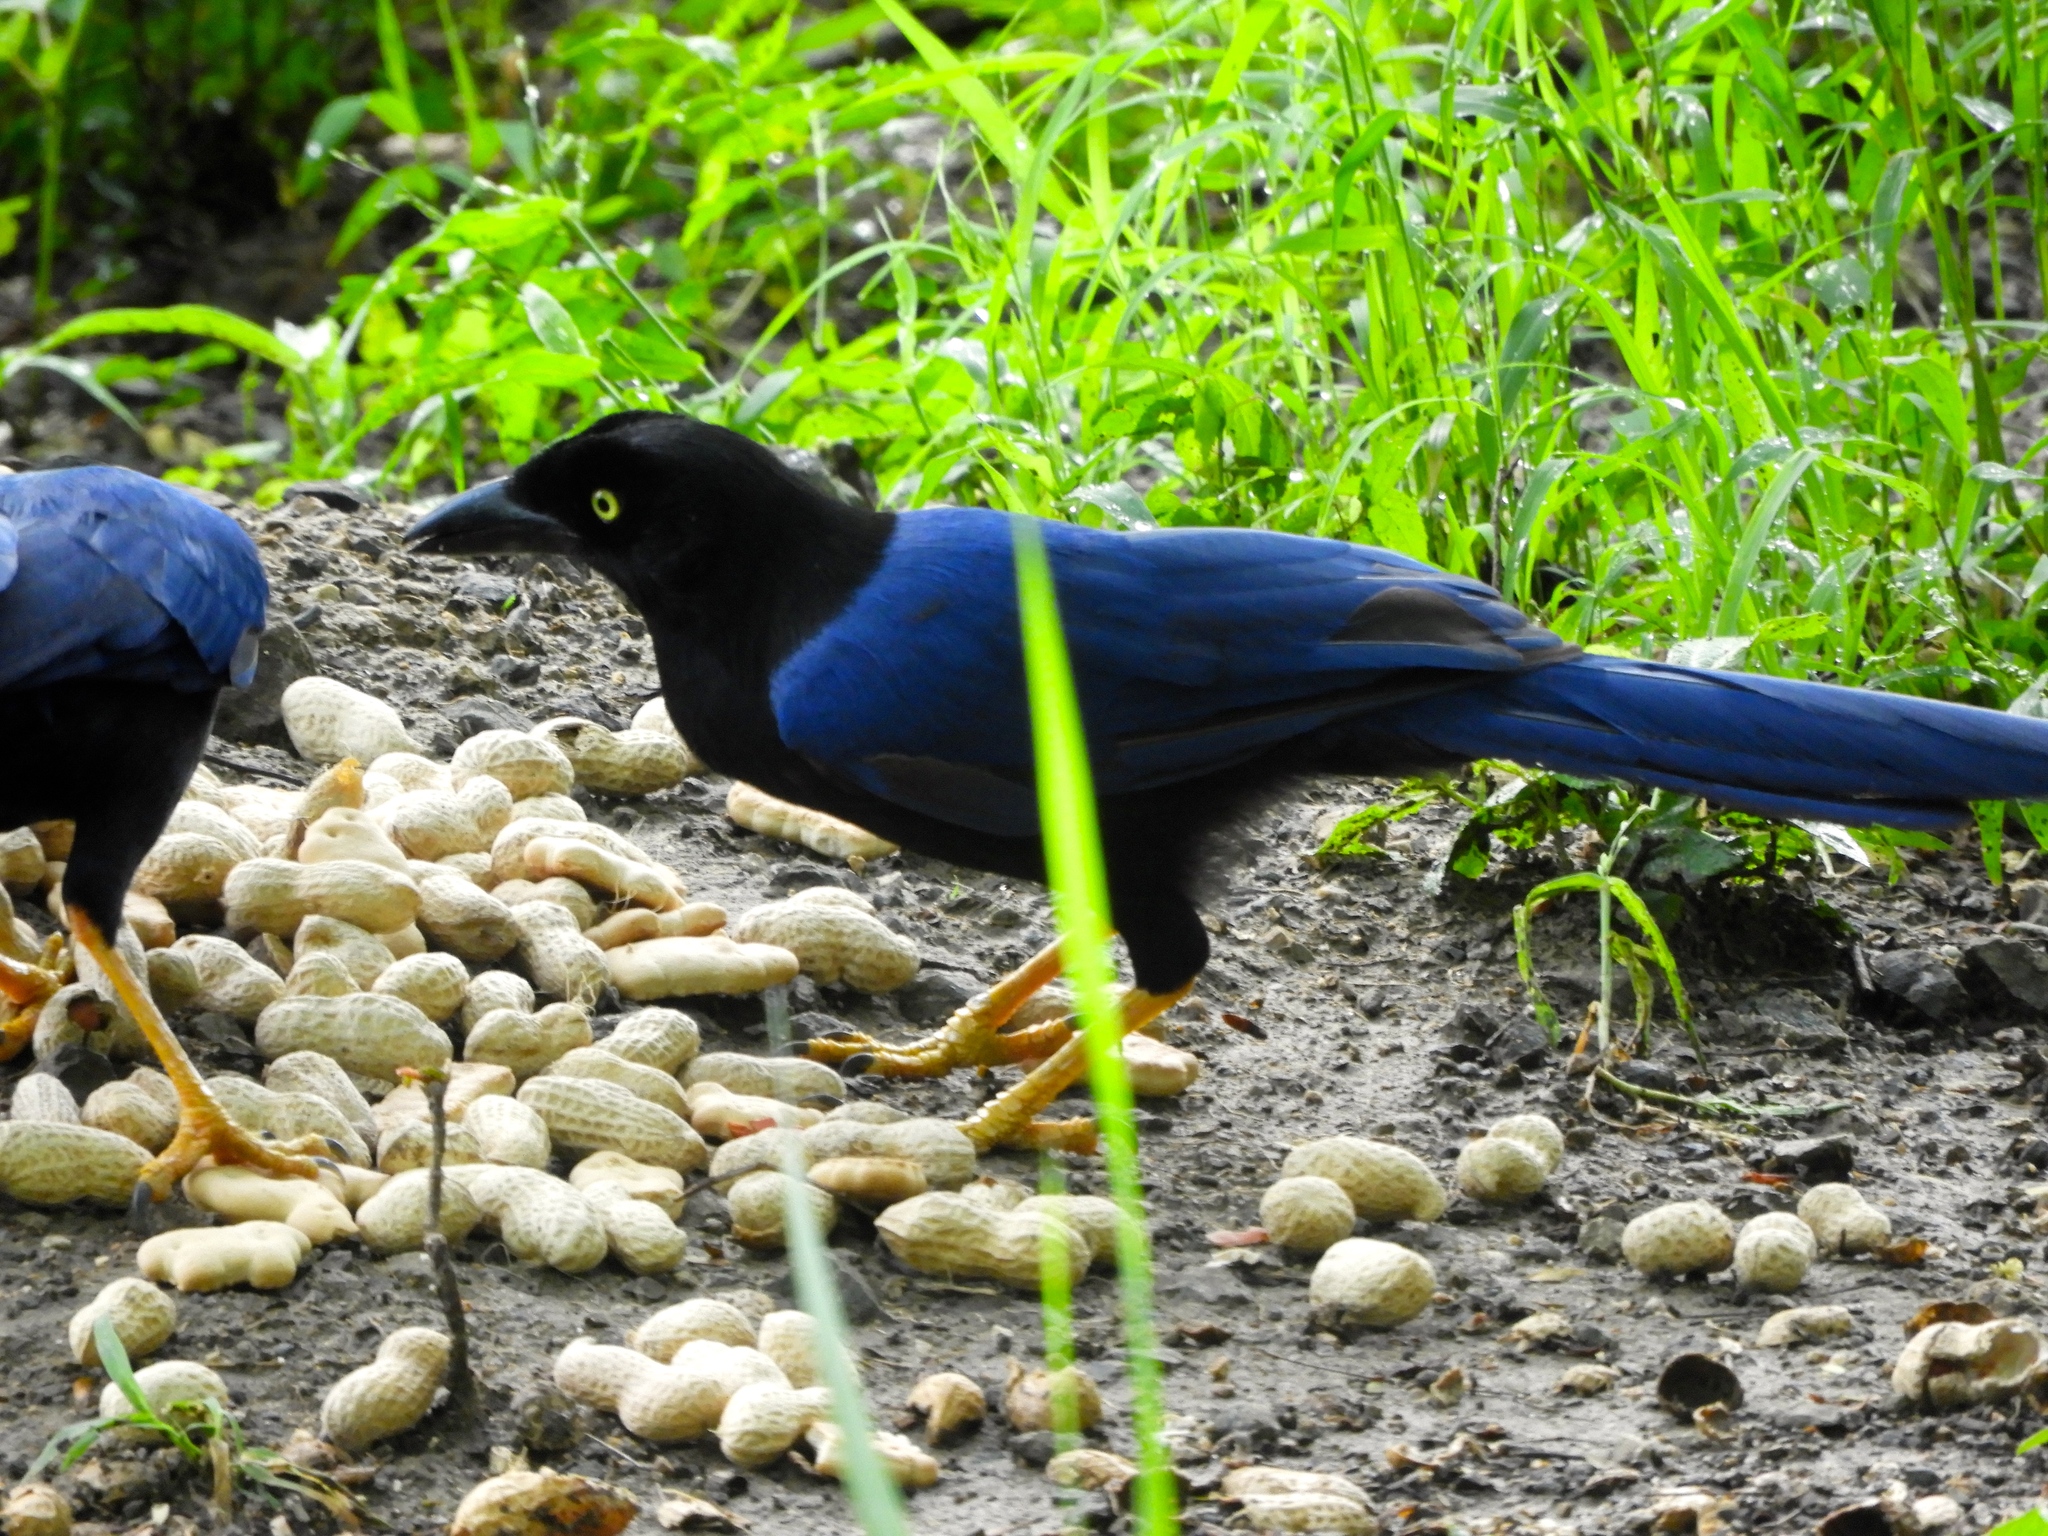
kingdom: Animalia
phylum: Chordata
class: Aves
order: Passeriformes
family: Corvidae
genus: Cyanocorax
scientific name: Cyanocorax beecheii
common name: Purplish-backed jay
